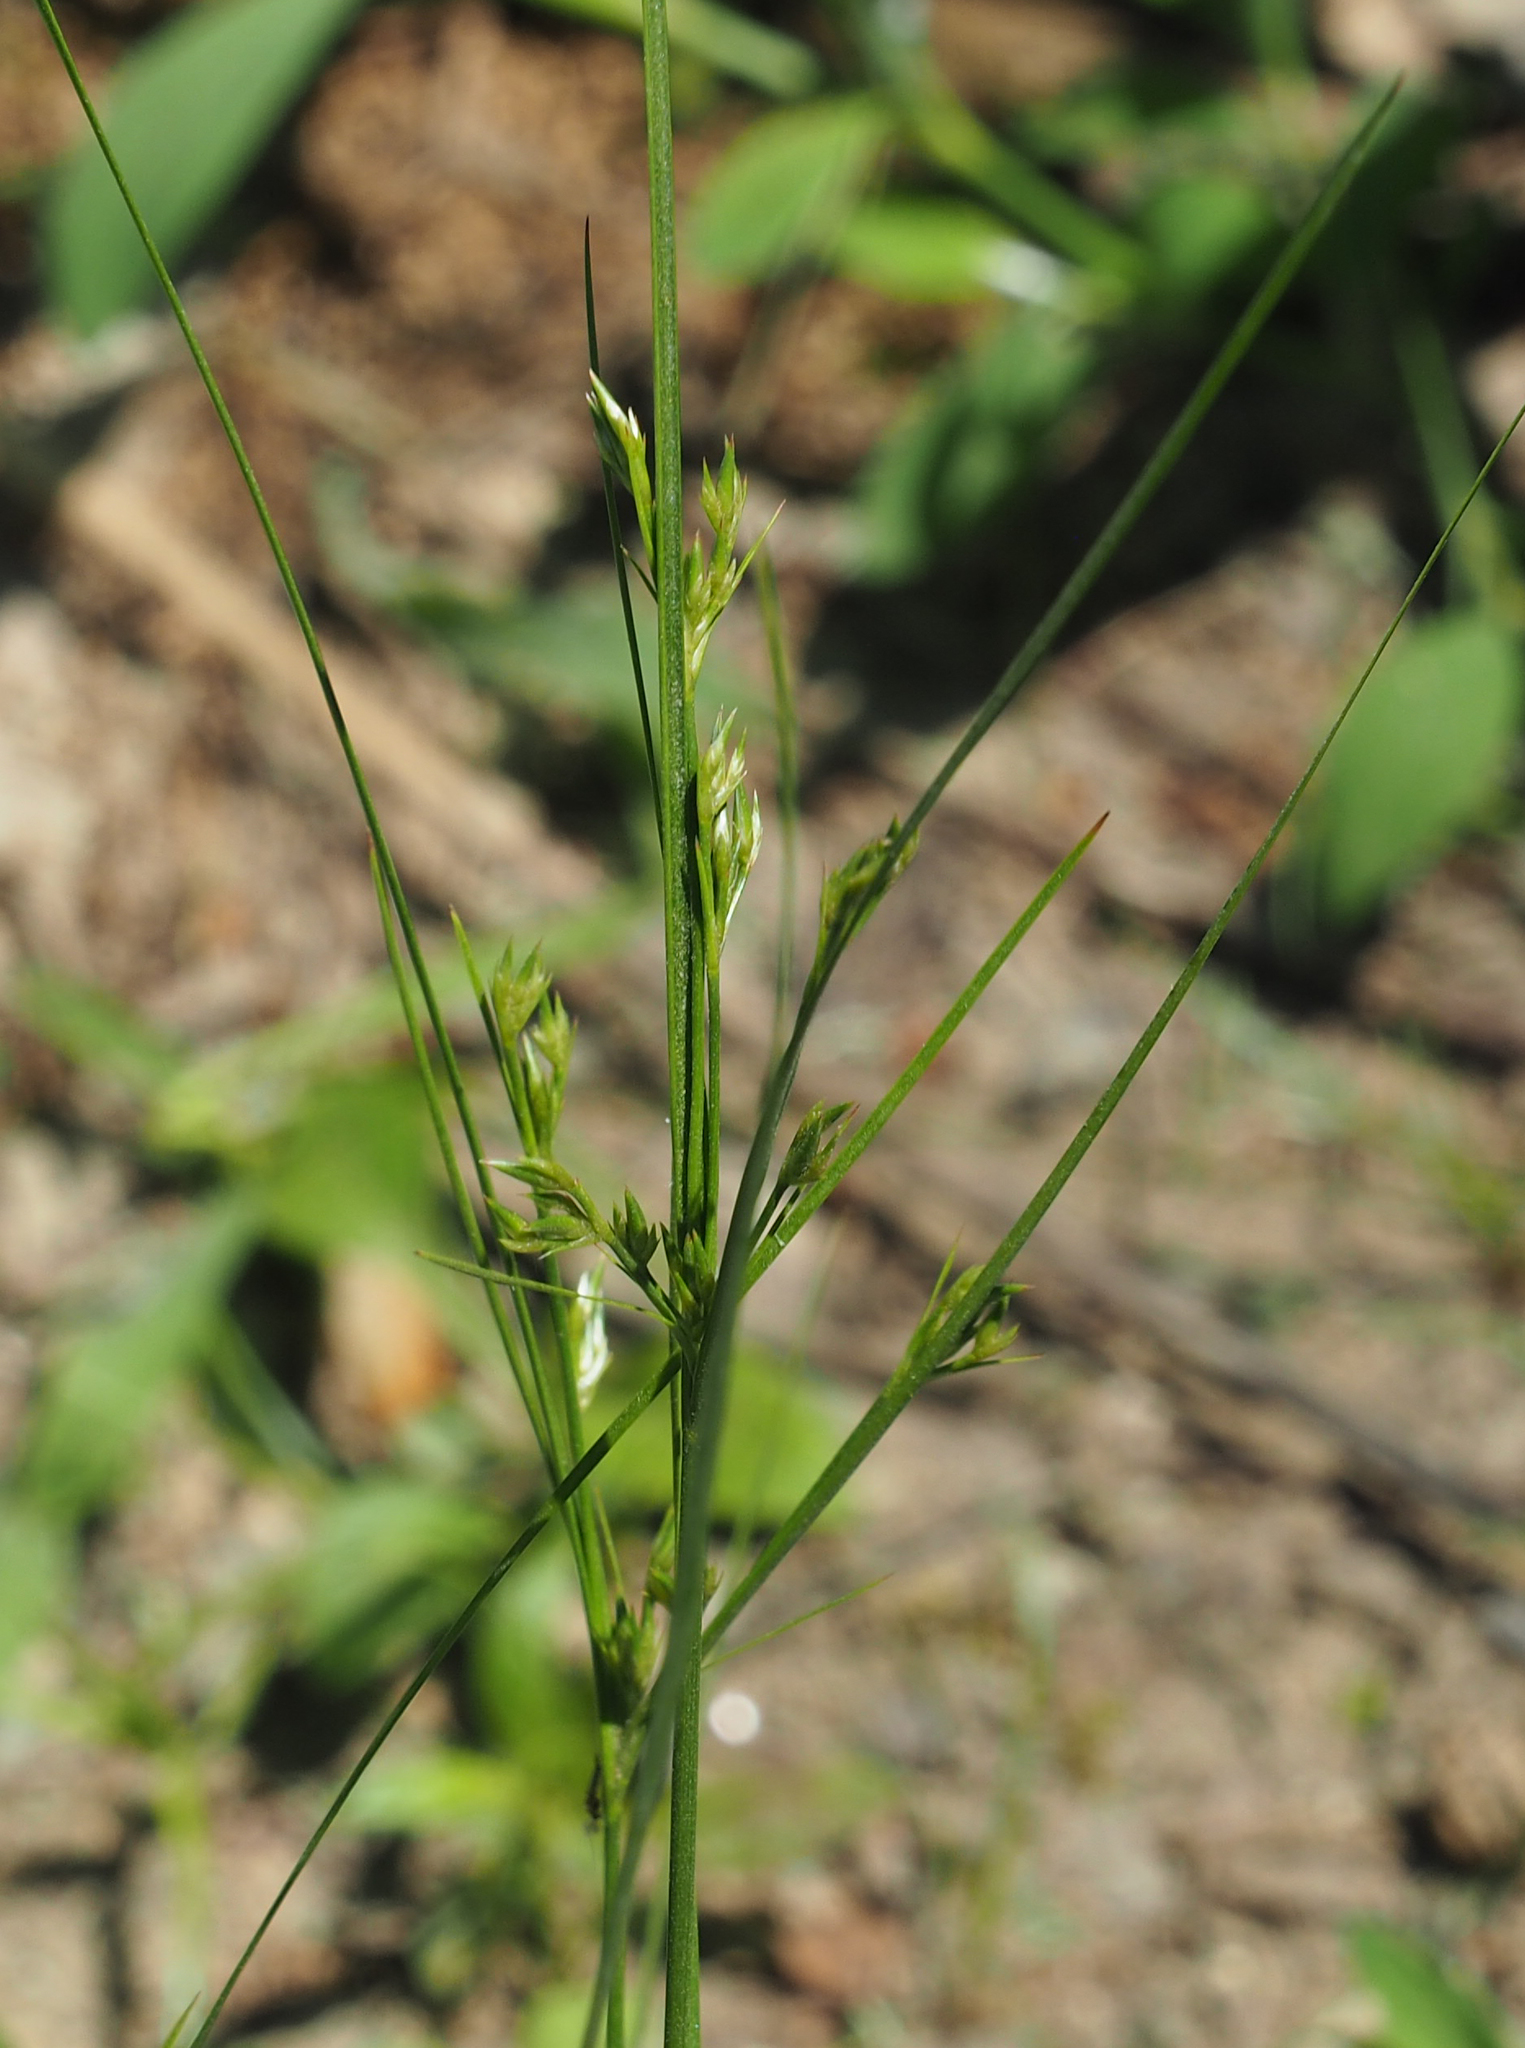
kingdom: Plantae
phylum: Tracheophyta
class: Liliopsida
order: Poales
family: Juncaceae
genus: Juncus
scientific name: Juncus tenuis
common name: Slender rush
